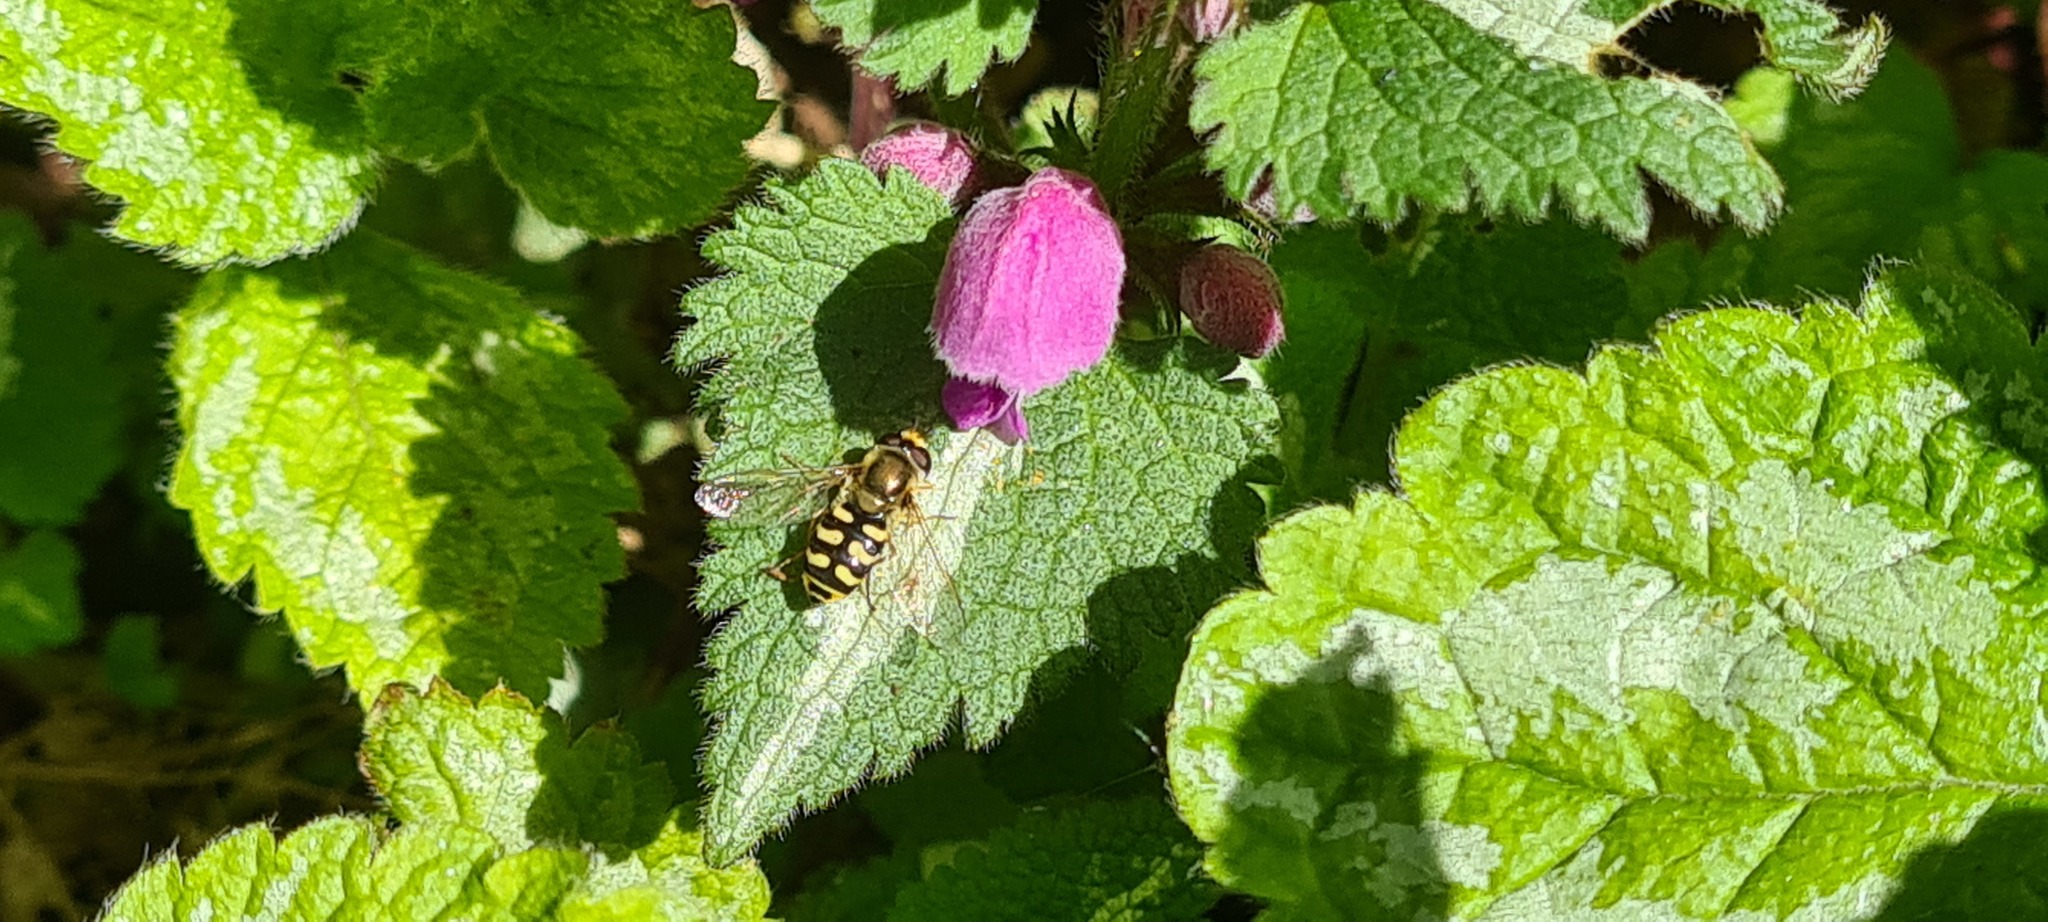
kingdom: Animalia
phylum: Arthropoda
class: Insecta
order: Diptera
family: Syrphidae
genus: Eupeodes
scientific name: Eupeodes corollae
